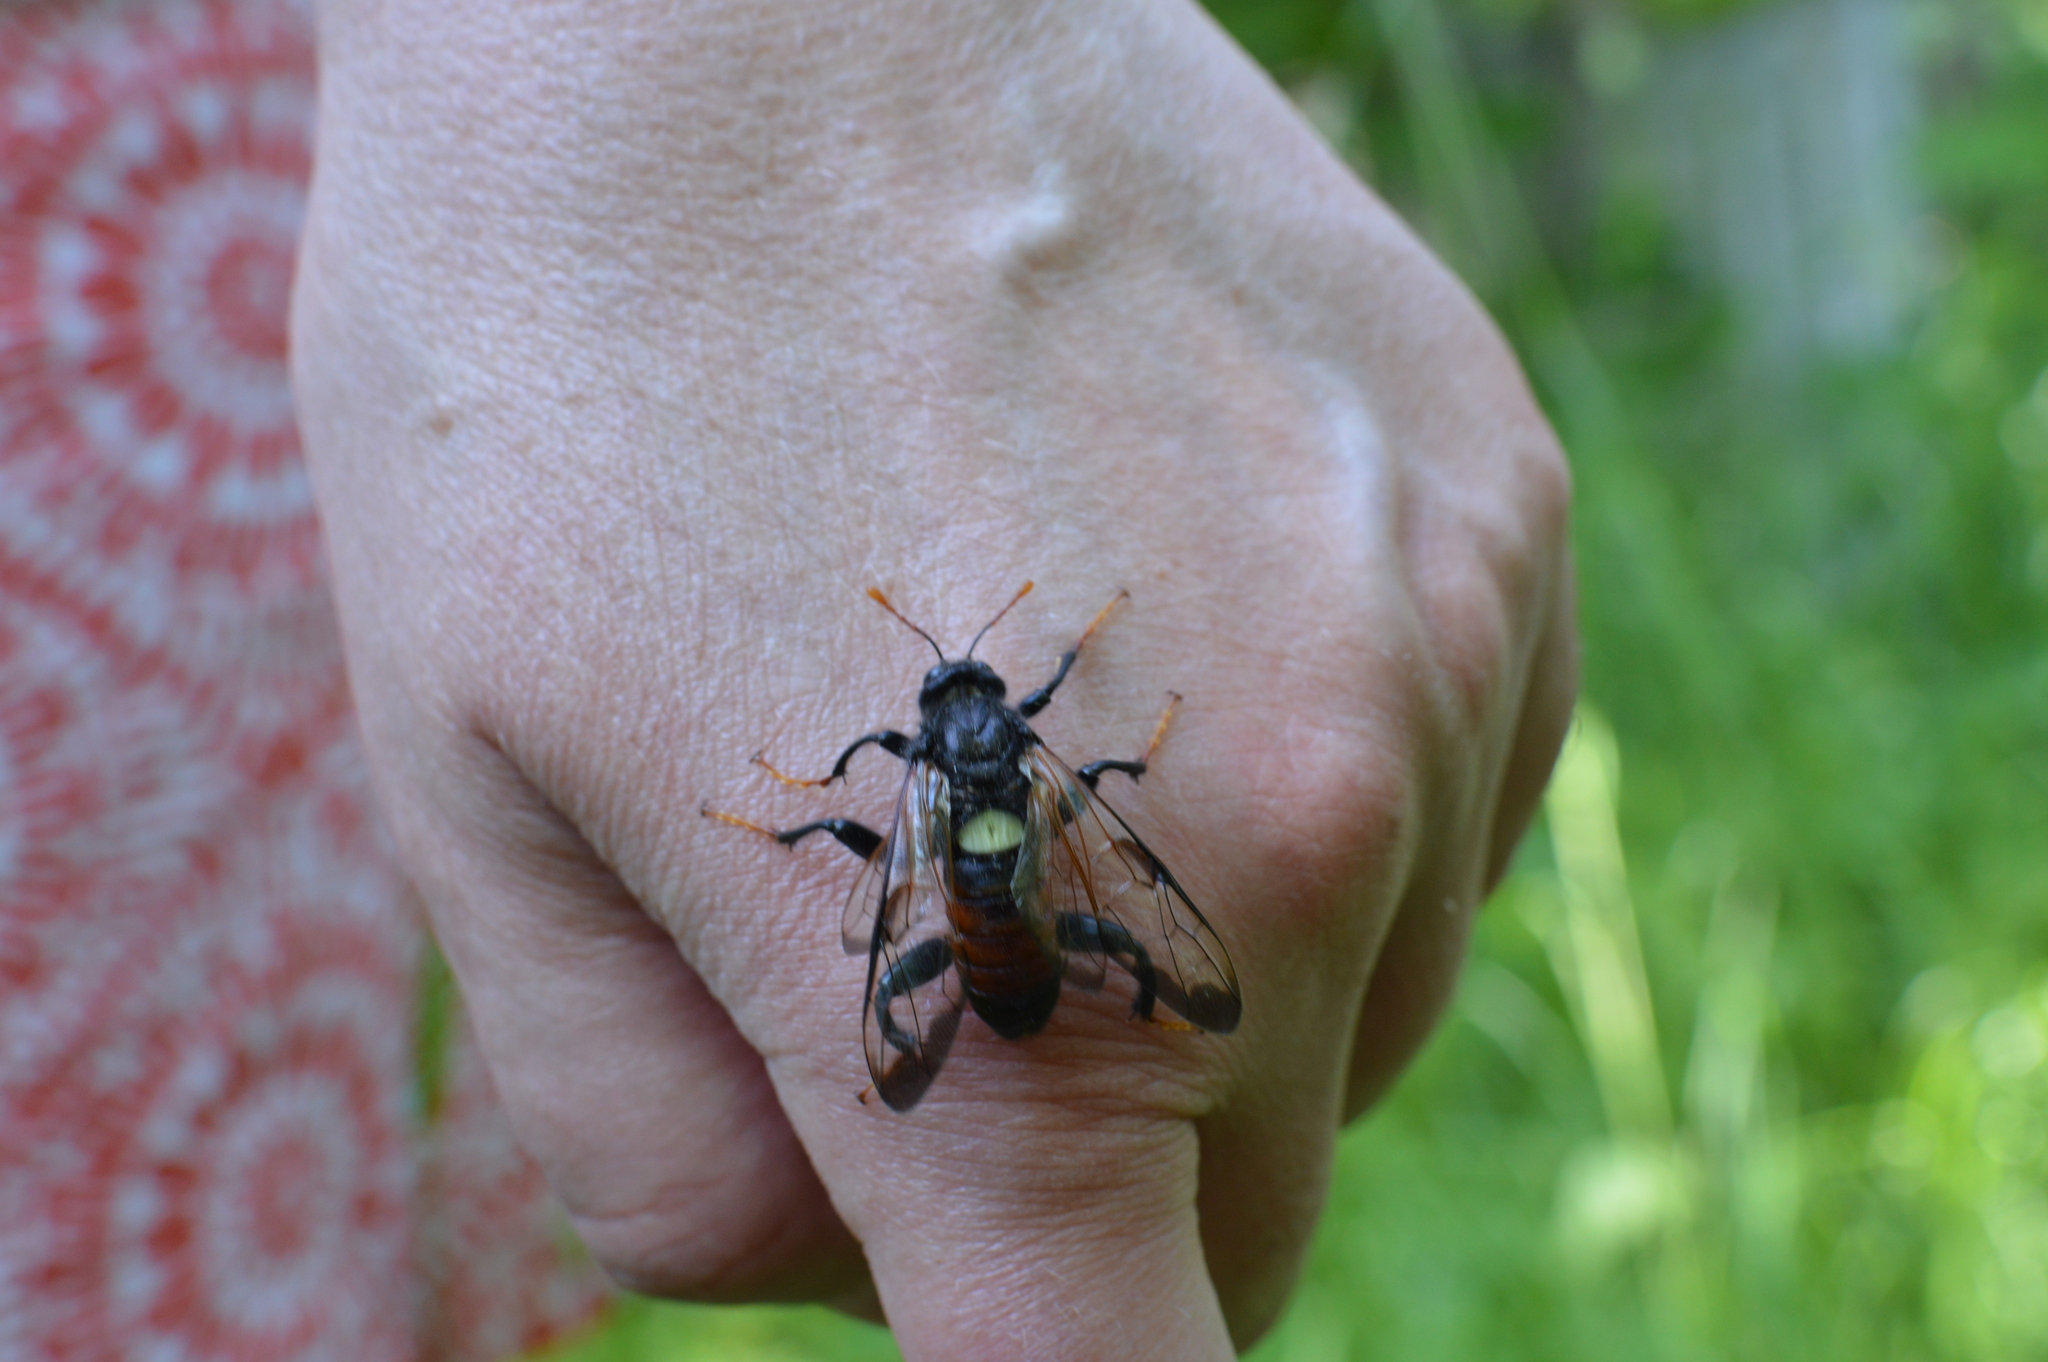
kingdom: Animalia
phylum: Arthropoda
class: Insecta
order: Hymenoptera
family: Cimbicidae
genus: Cimbex
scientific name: Cimbex femoratus
